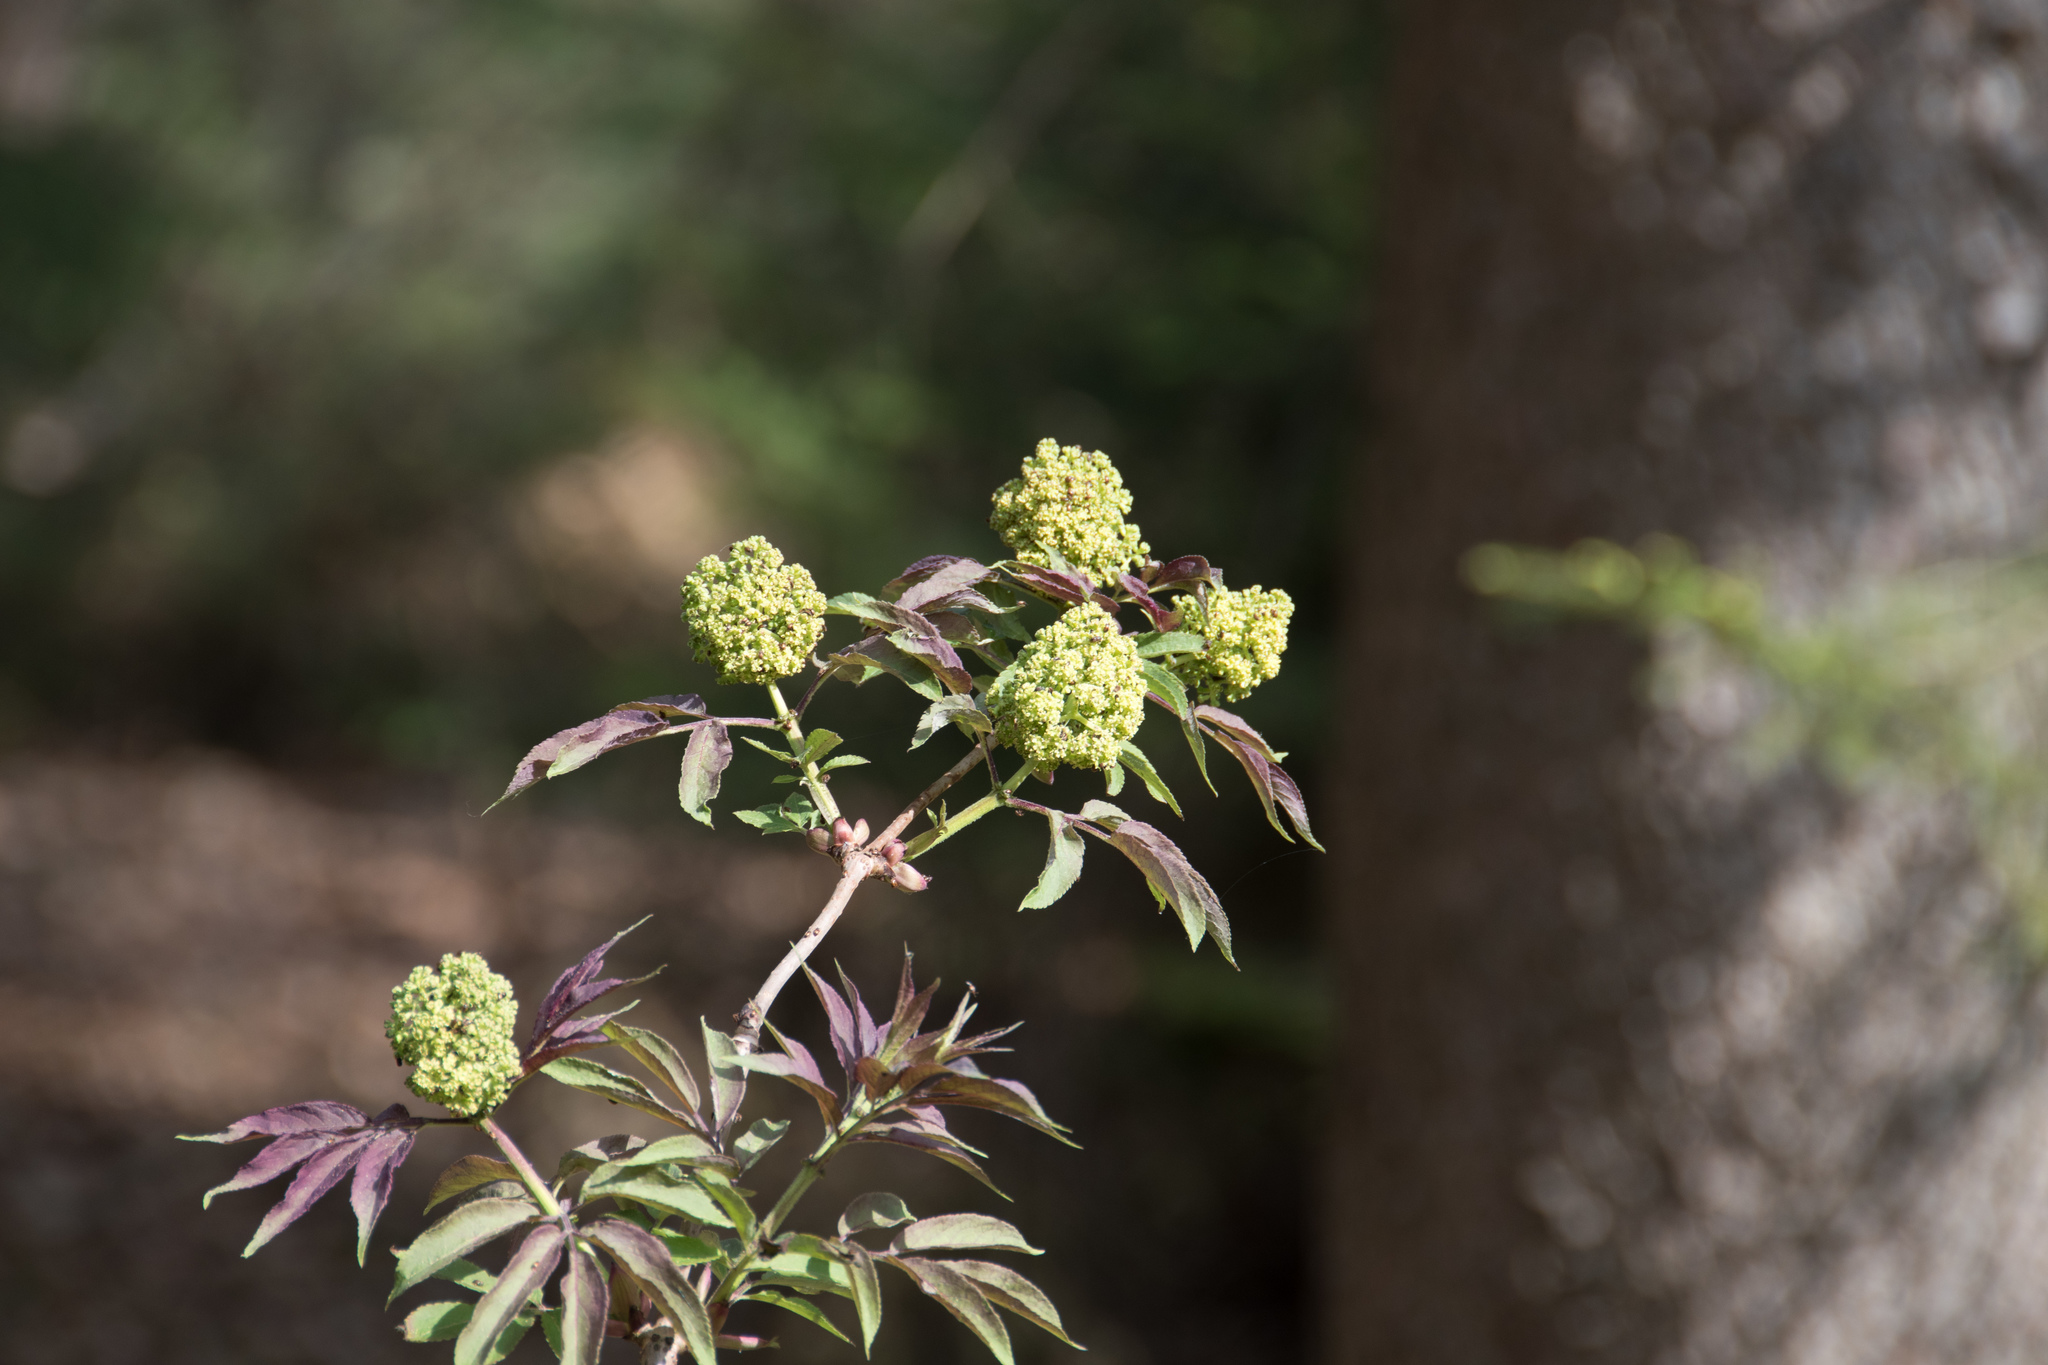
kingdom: Plantae
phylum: Tracheophyta
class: Magnoliopsida
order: Dipsacales
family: Viburnaceae
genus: Sambucus
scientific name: Sambucus racemosa
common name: Red-berried elder
